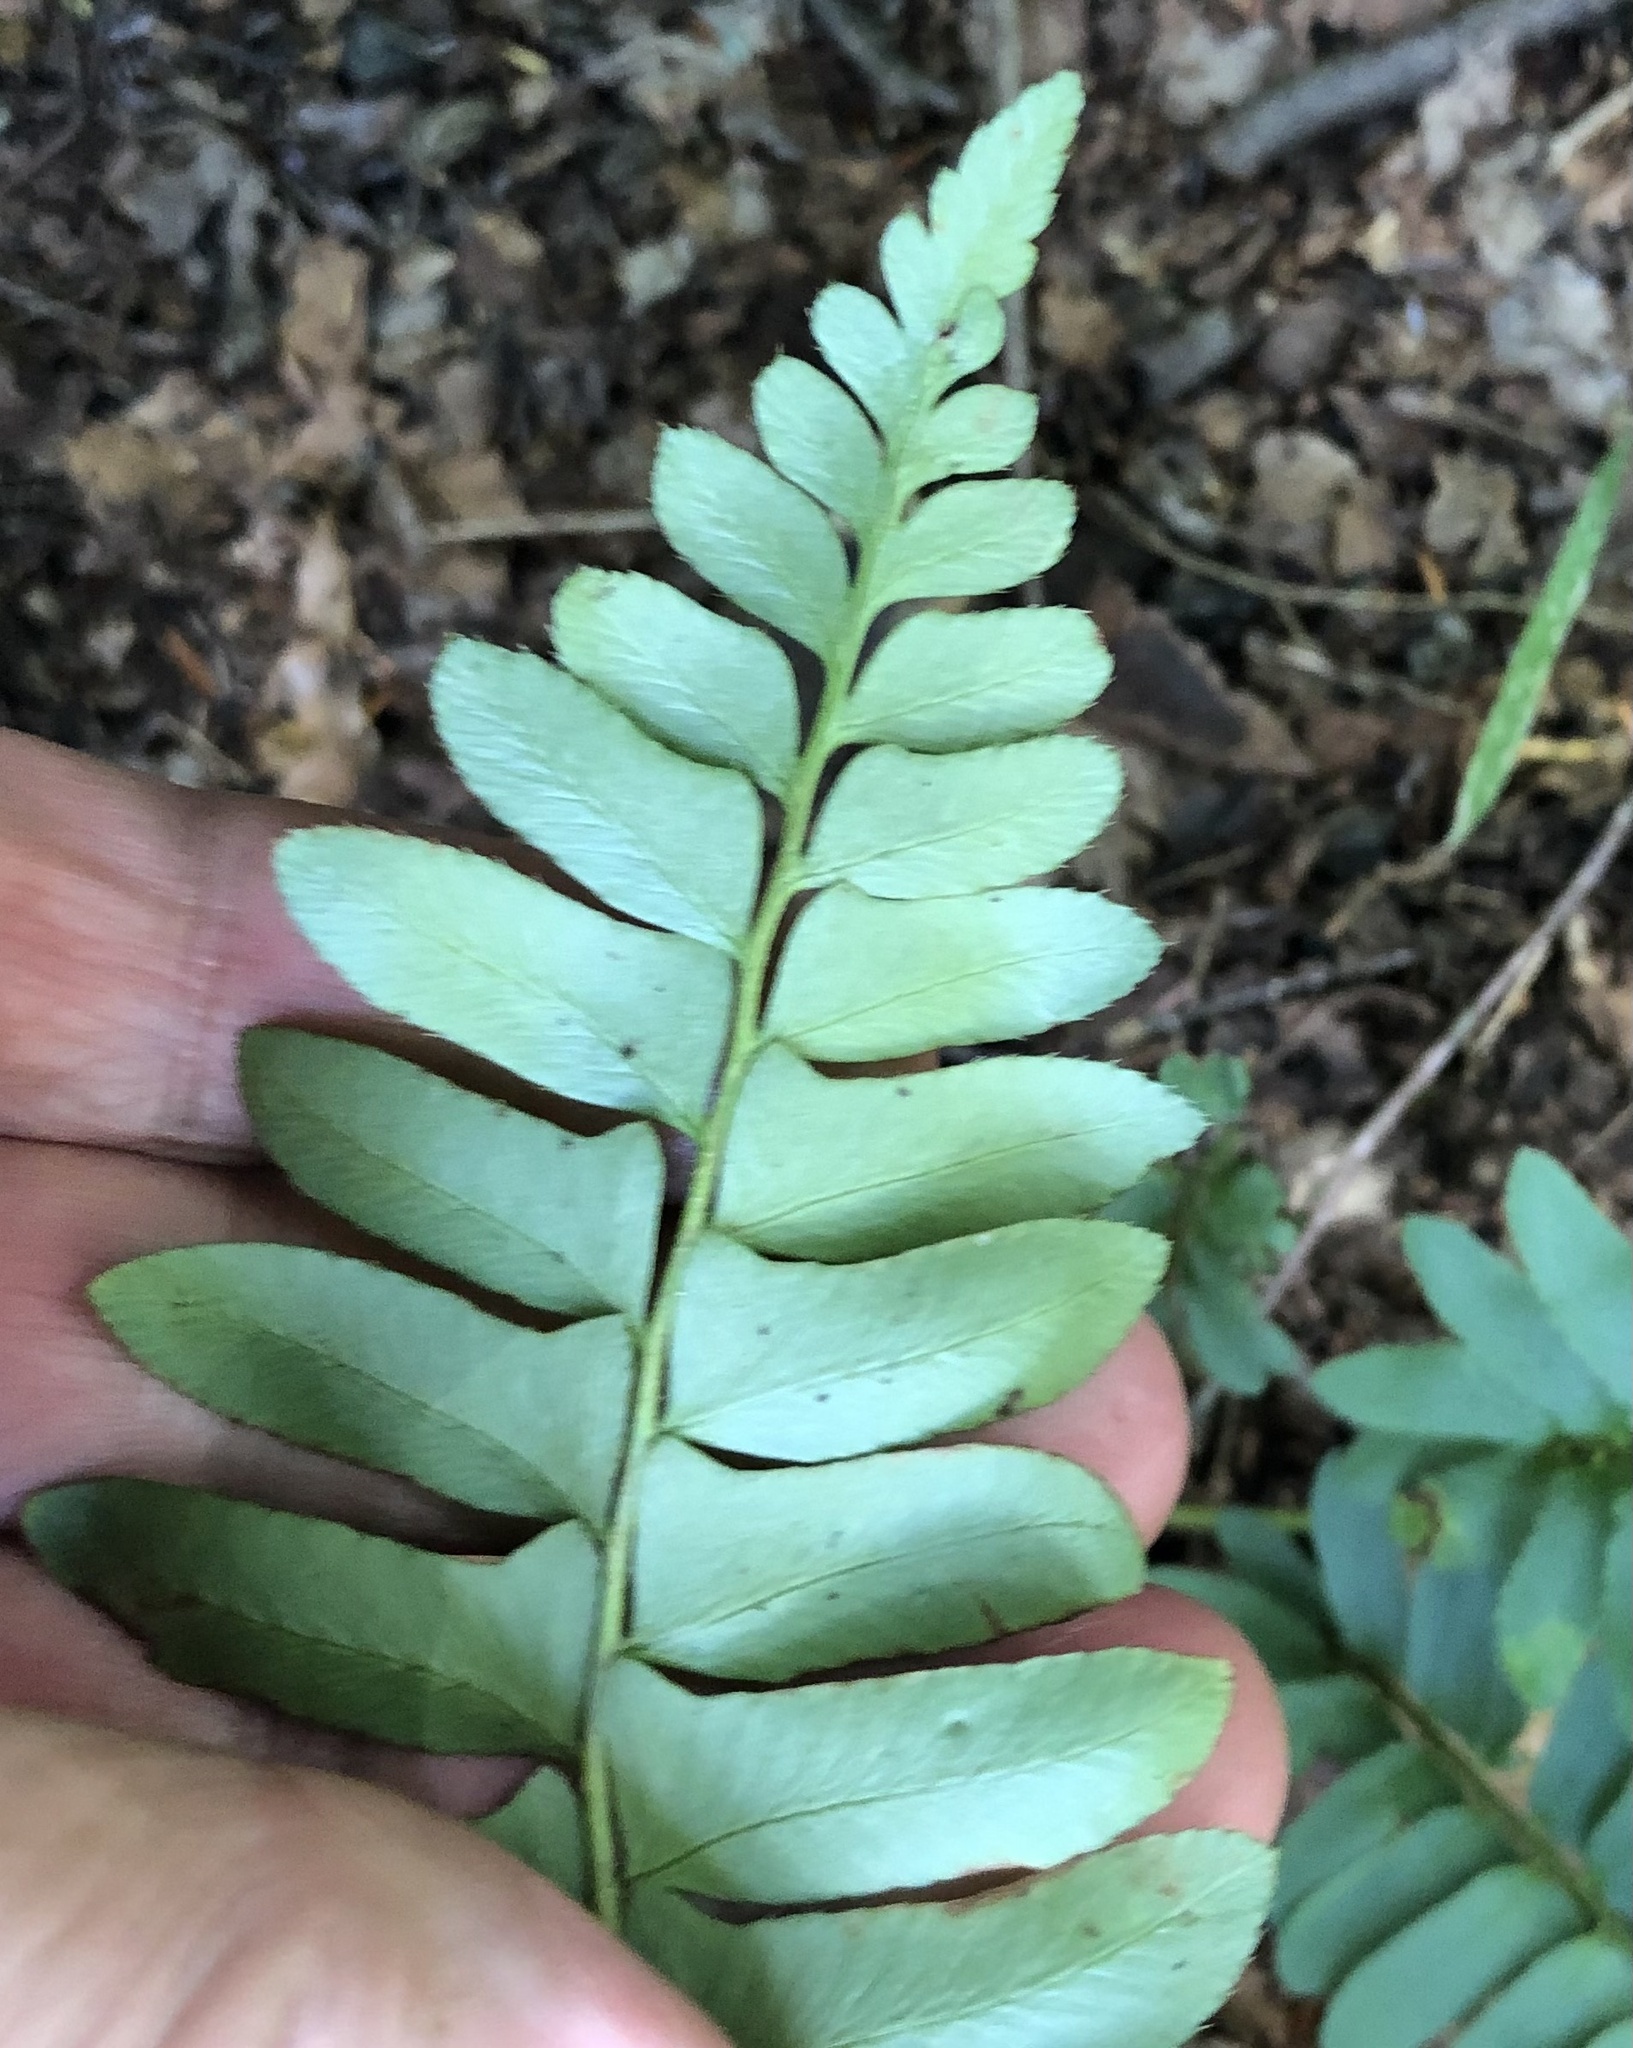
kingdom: Plantae
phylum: Tracheophyta
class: Polypodiopsida
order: Polypodiales
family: Dryopteridaceae
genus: Polystichum
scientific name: Polystichum acrostichoides
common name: Christmas fern
